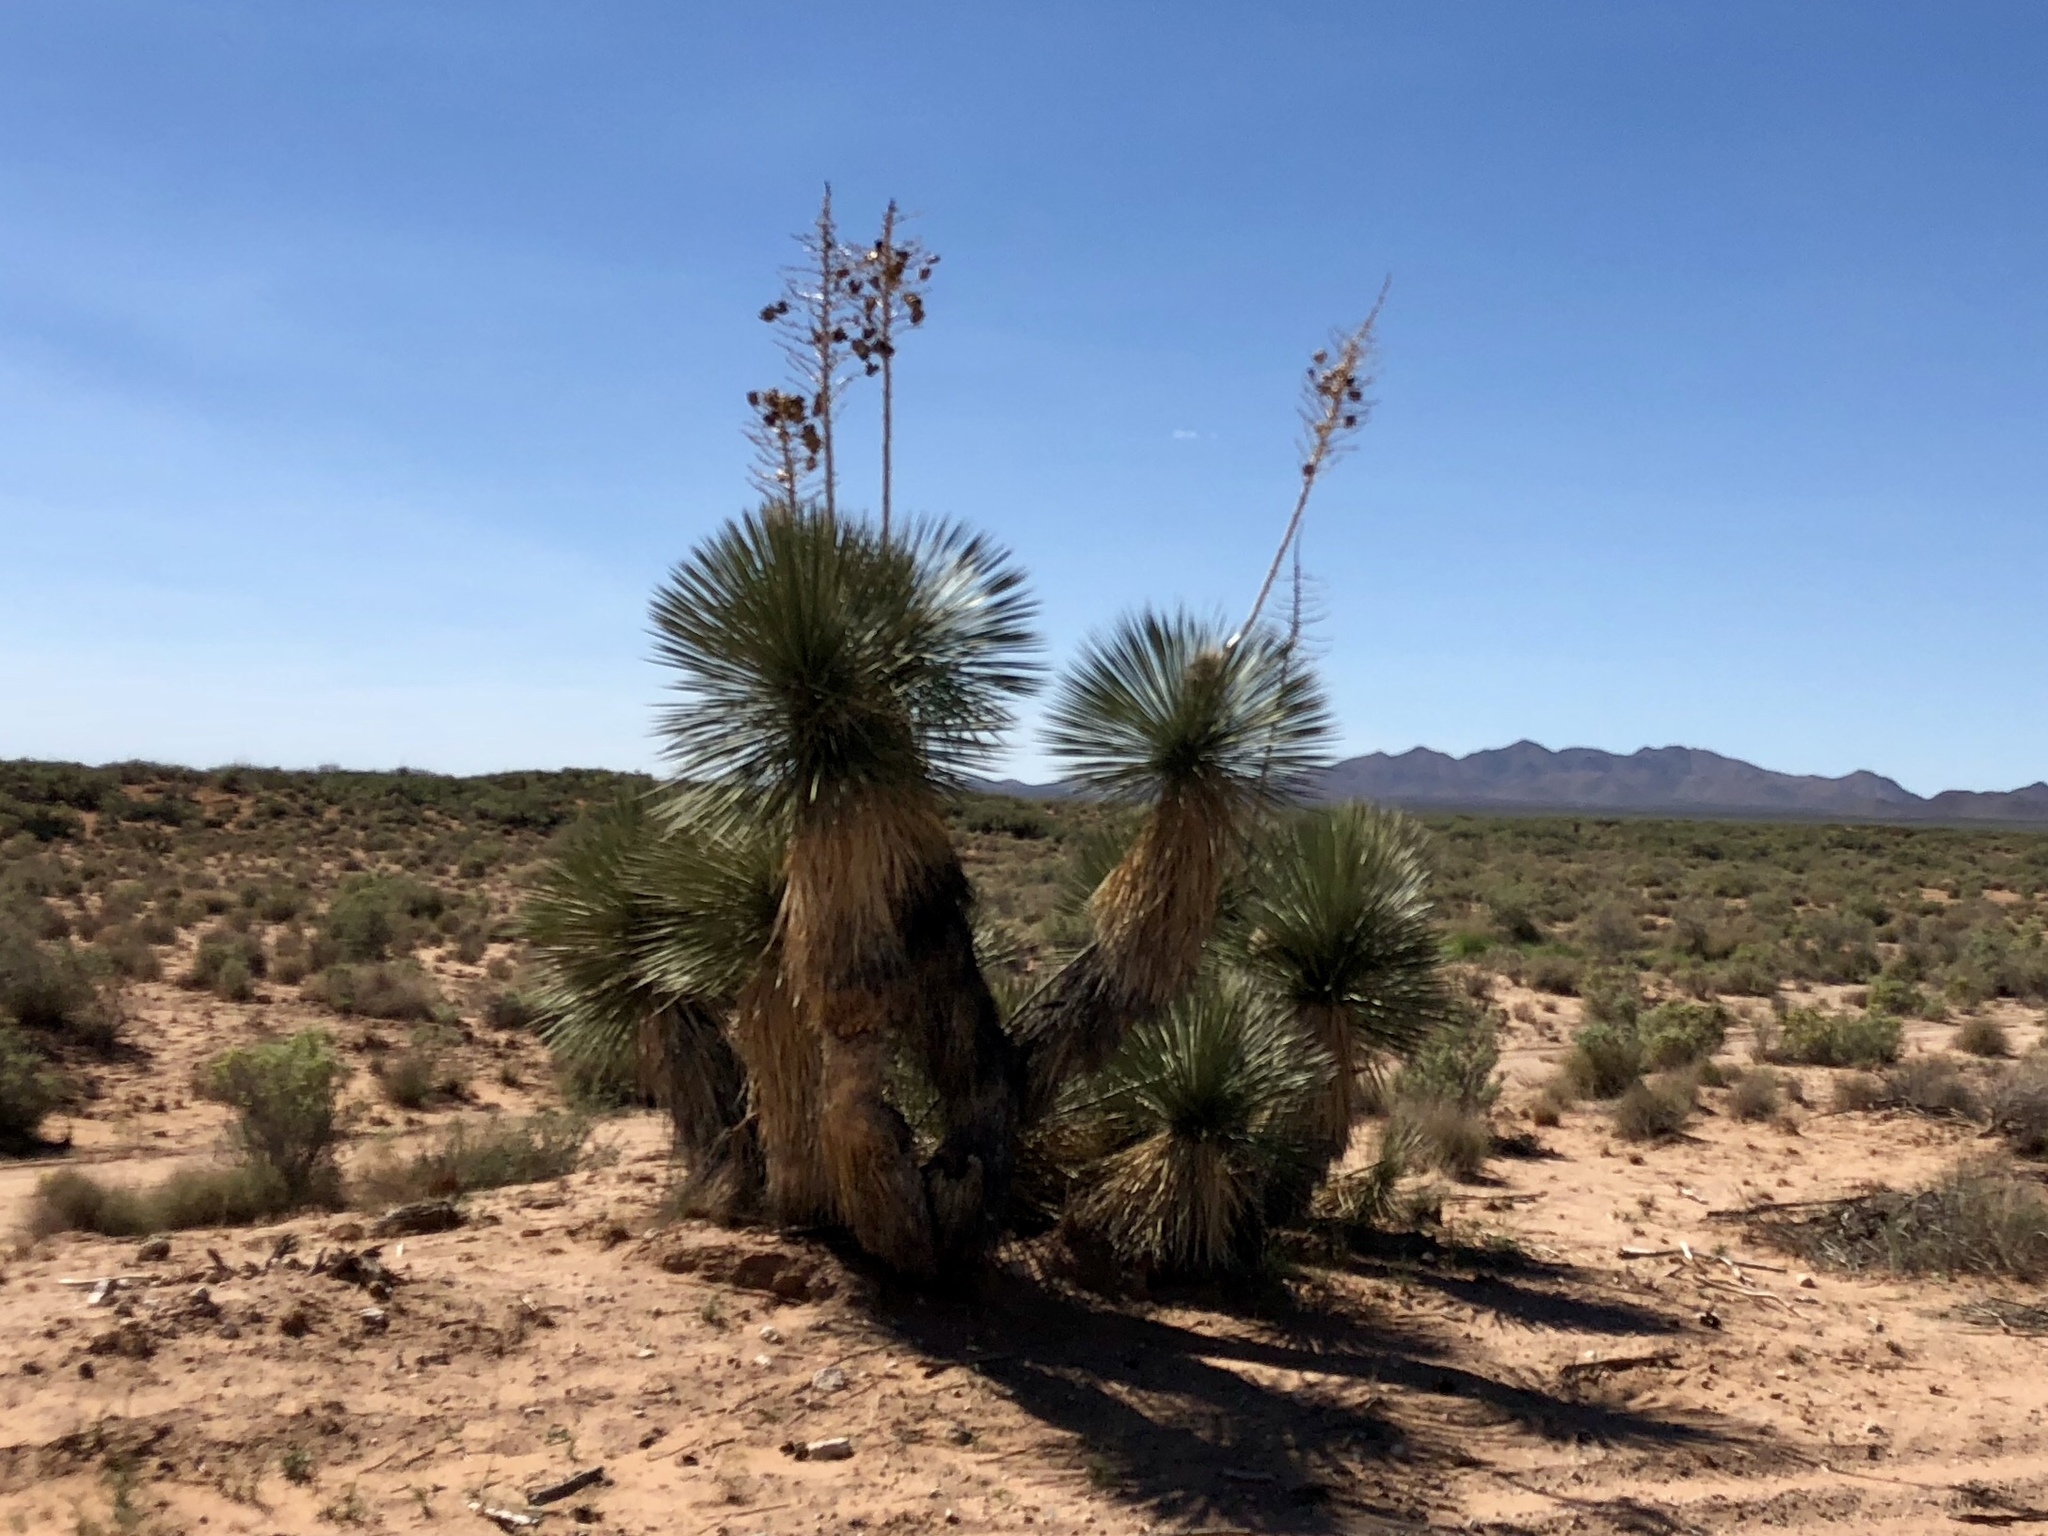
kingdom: Plantae
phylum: Tracheophyta
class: Liliopsida
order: Asparagales
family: Asparagaceae
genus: Yucca
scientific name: Yucca elata
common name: Palmella
